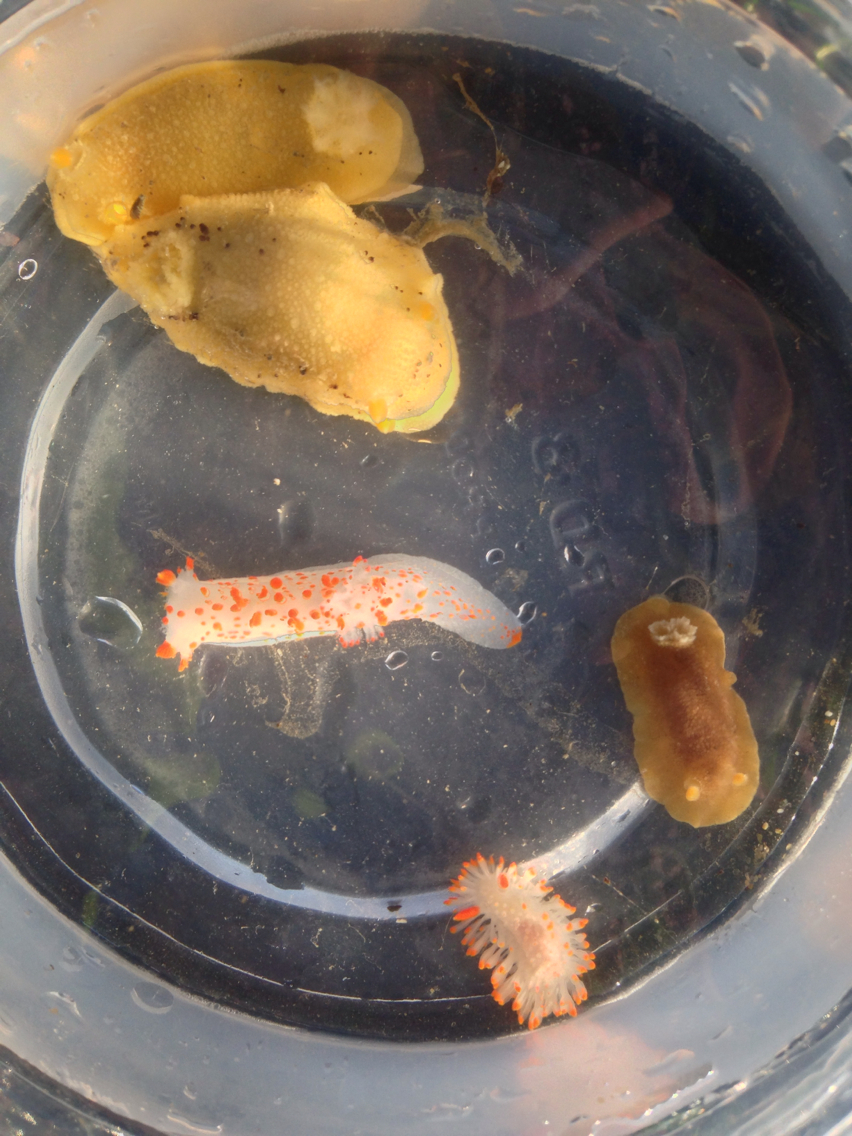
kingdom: Animalia
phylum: Mollusca
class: Gastropoda
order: Nudibranchia
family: Dorididae
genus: Doris
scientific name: Doris montereyensis
